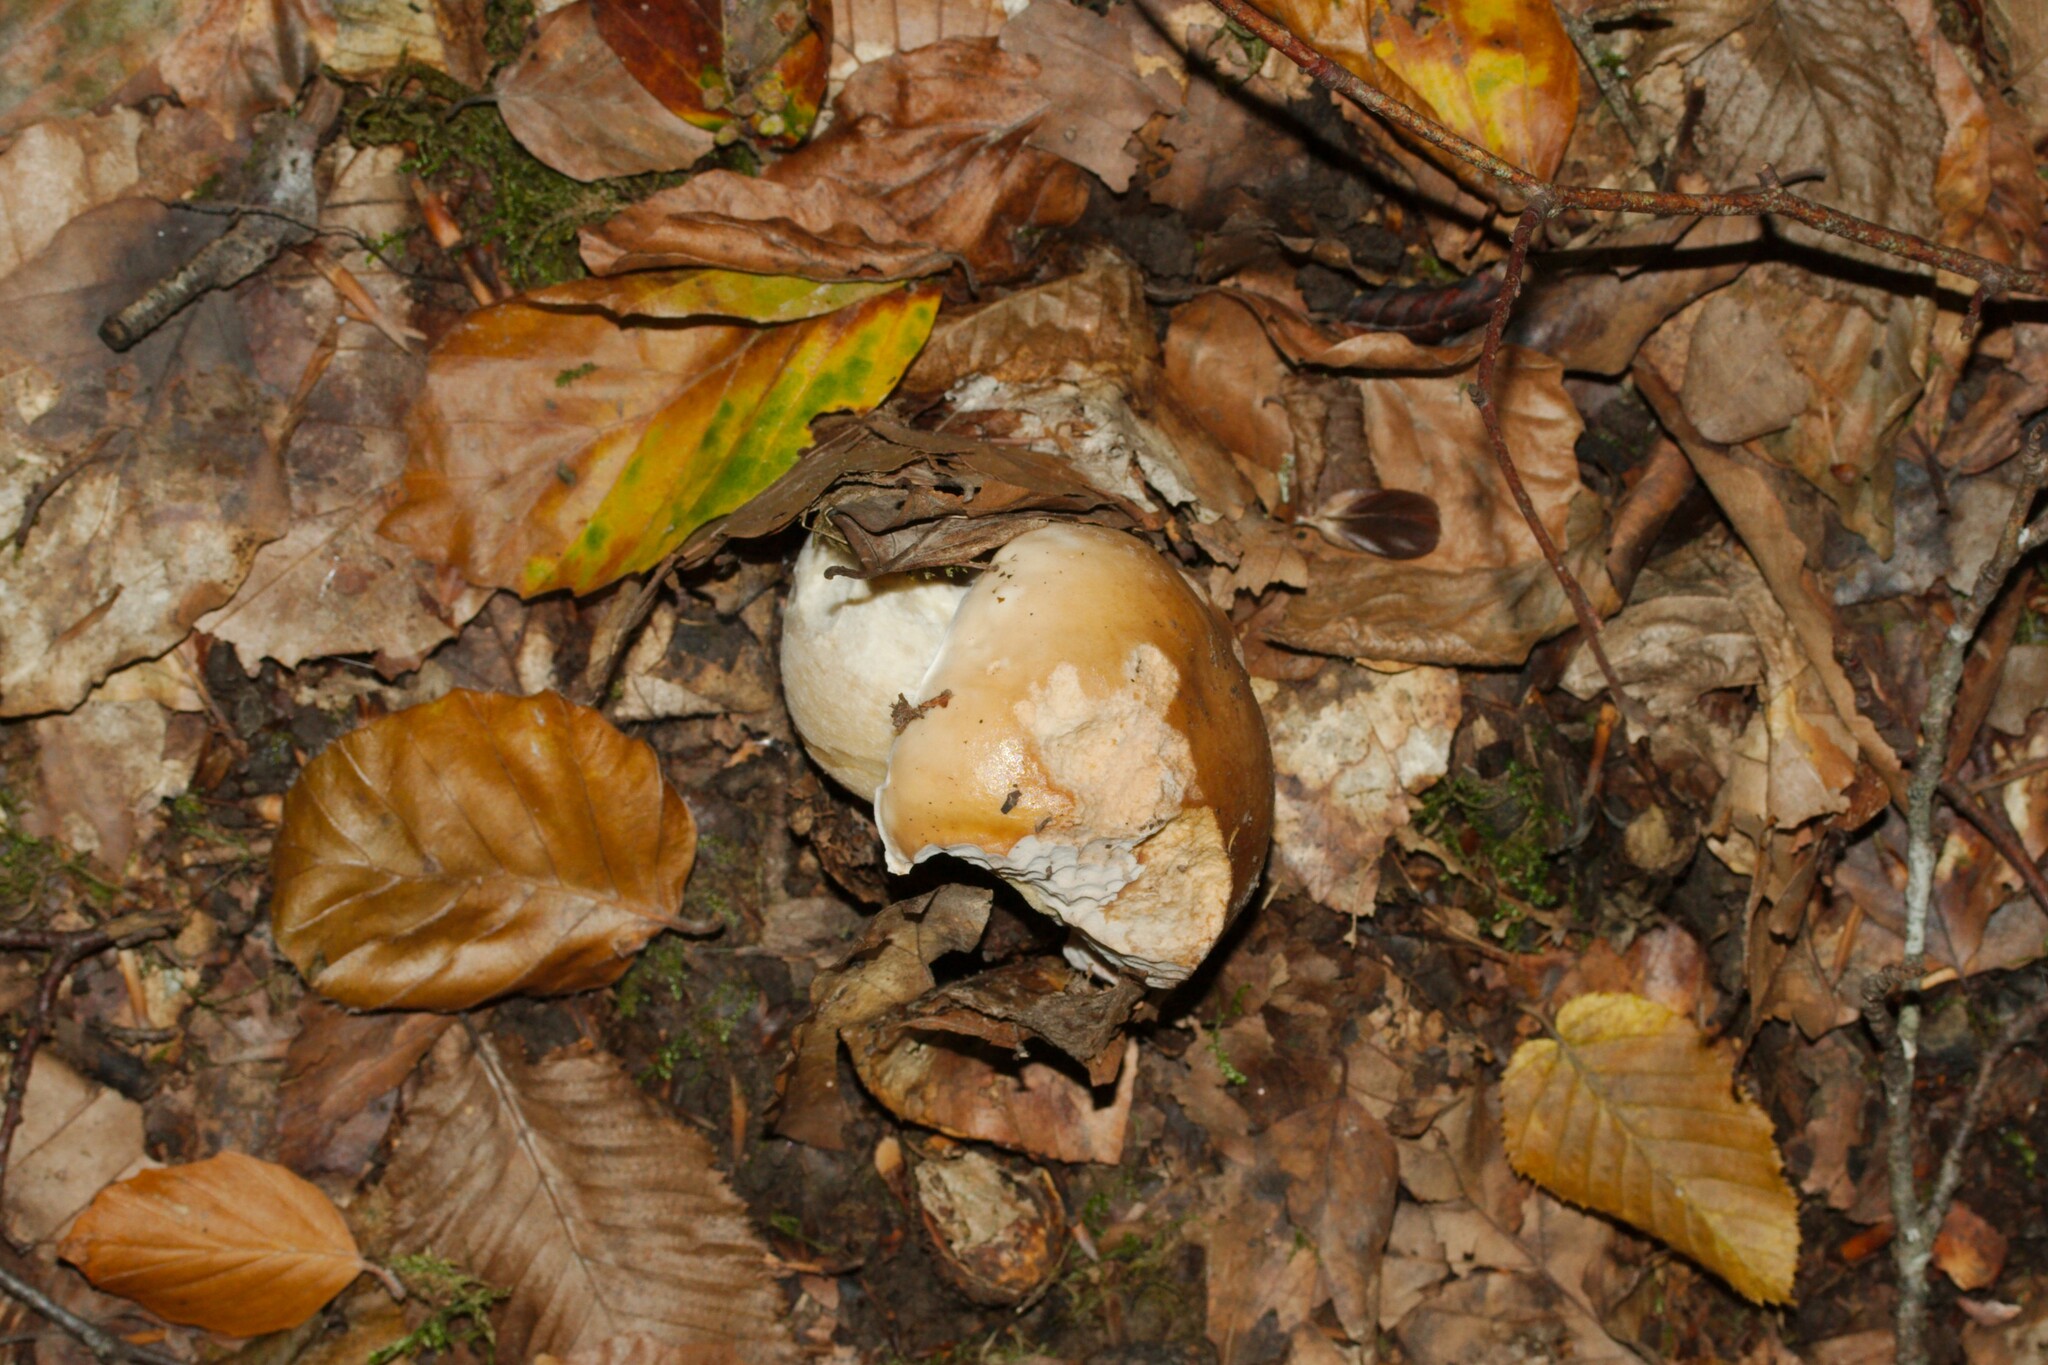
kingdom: Fungi
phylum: Basidiomycota
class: Agaricomycetes
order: Boletales
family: Boletaceae
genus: Boletus
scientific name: Boletus edulis
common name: Cep
